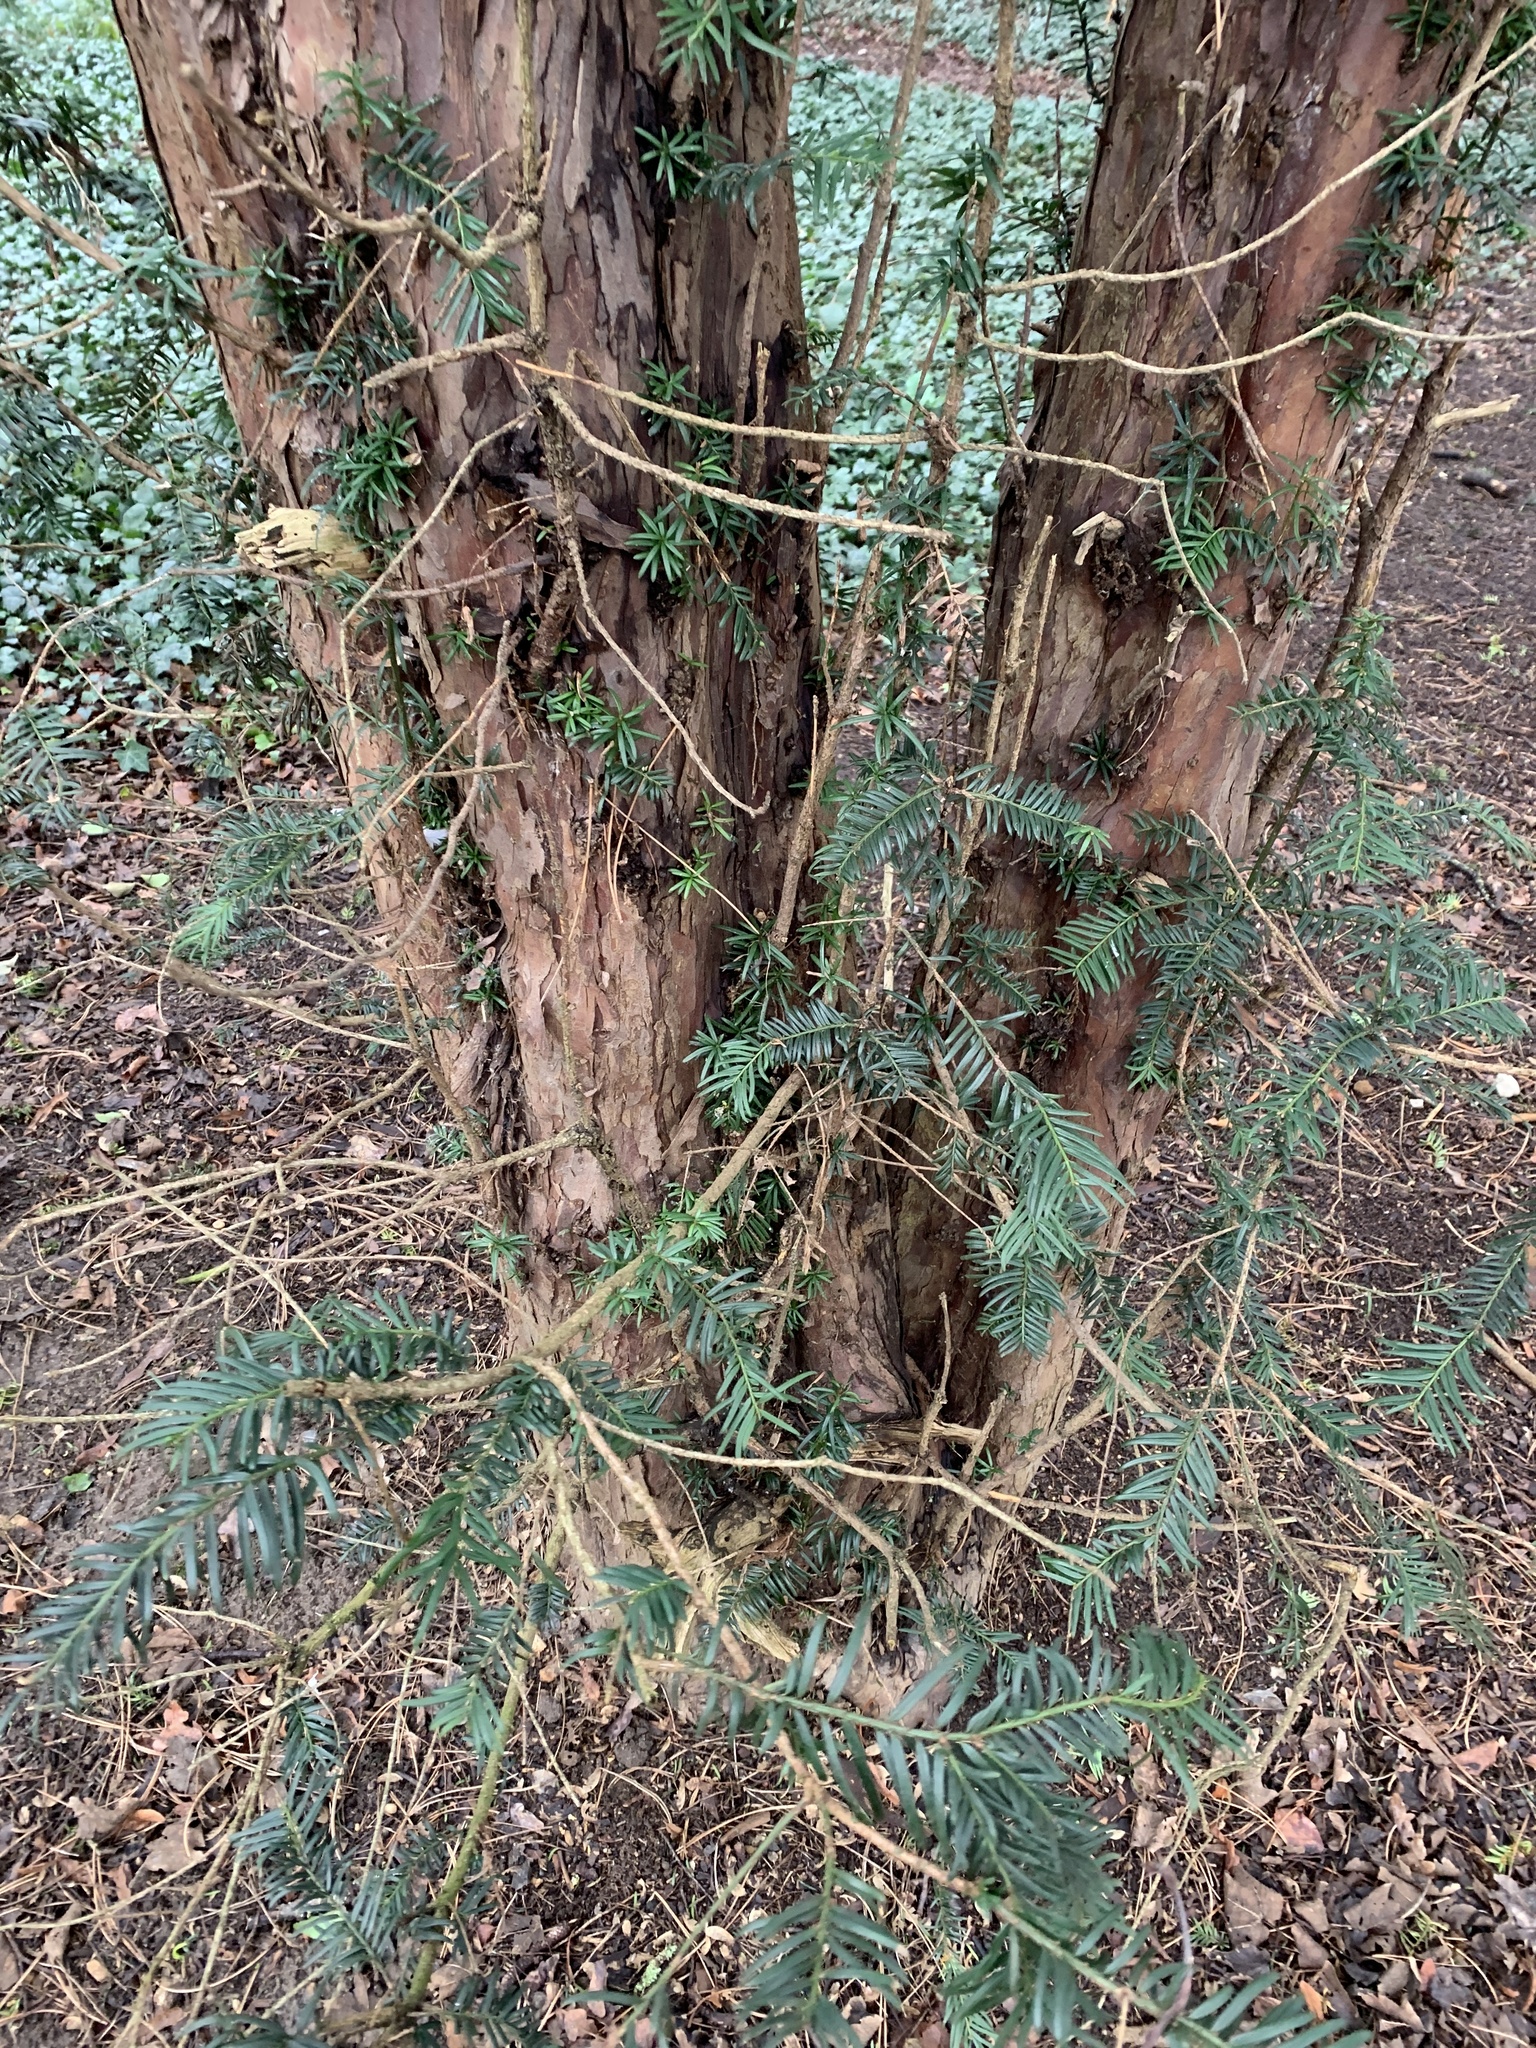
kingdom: Plantae
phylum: Tracheophyta
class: Pinopsida
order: Pinales
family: Taxaceae
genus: Taxus
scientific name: Taxus baccata
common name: Yew
